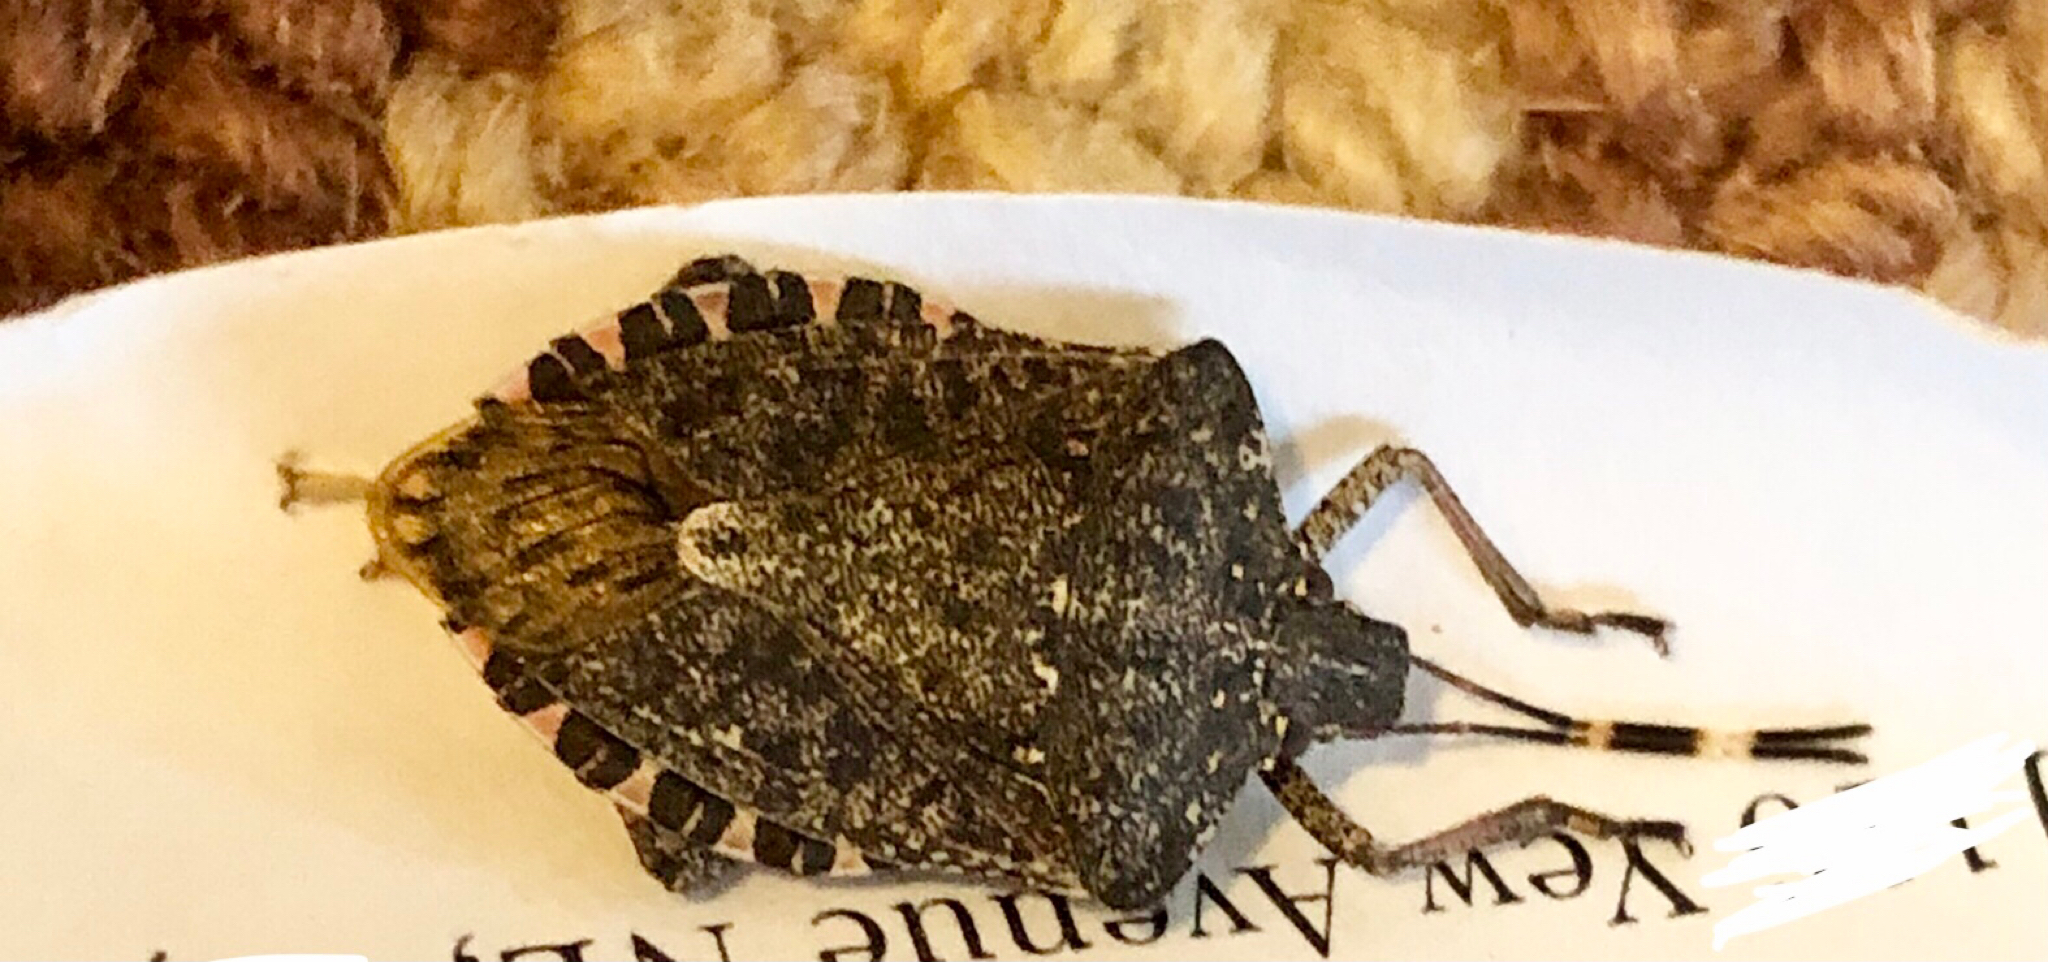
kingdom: Animalia
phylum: Arthropoda
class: Insecta
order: Hemiptera
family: Pentatomidae
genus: Halyomorpha
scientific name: Halyomorpha halys
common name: Brown marmorated stink bug
